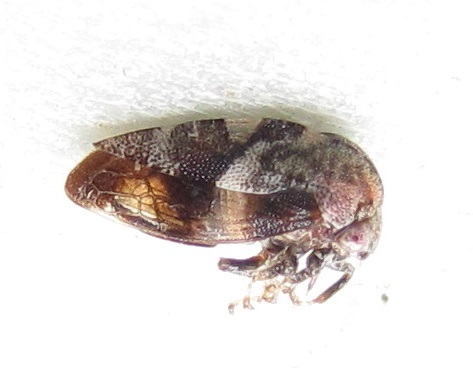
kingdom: Animalia
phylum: Arthropoda
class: Insecta
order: Hemiptera
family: Membracidae
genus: Cyrtolobus
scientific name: Cyrtolobus pallidifrontis
